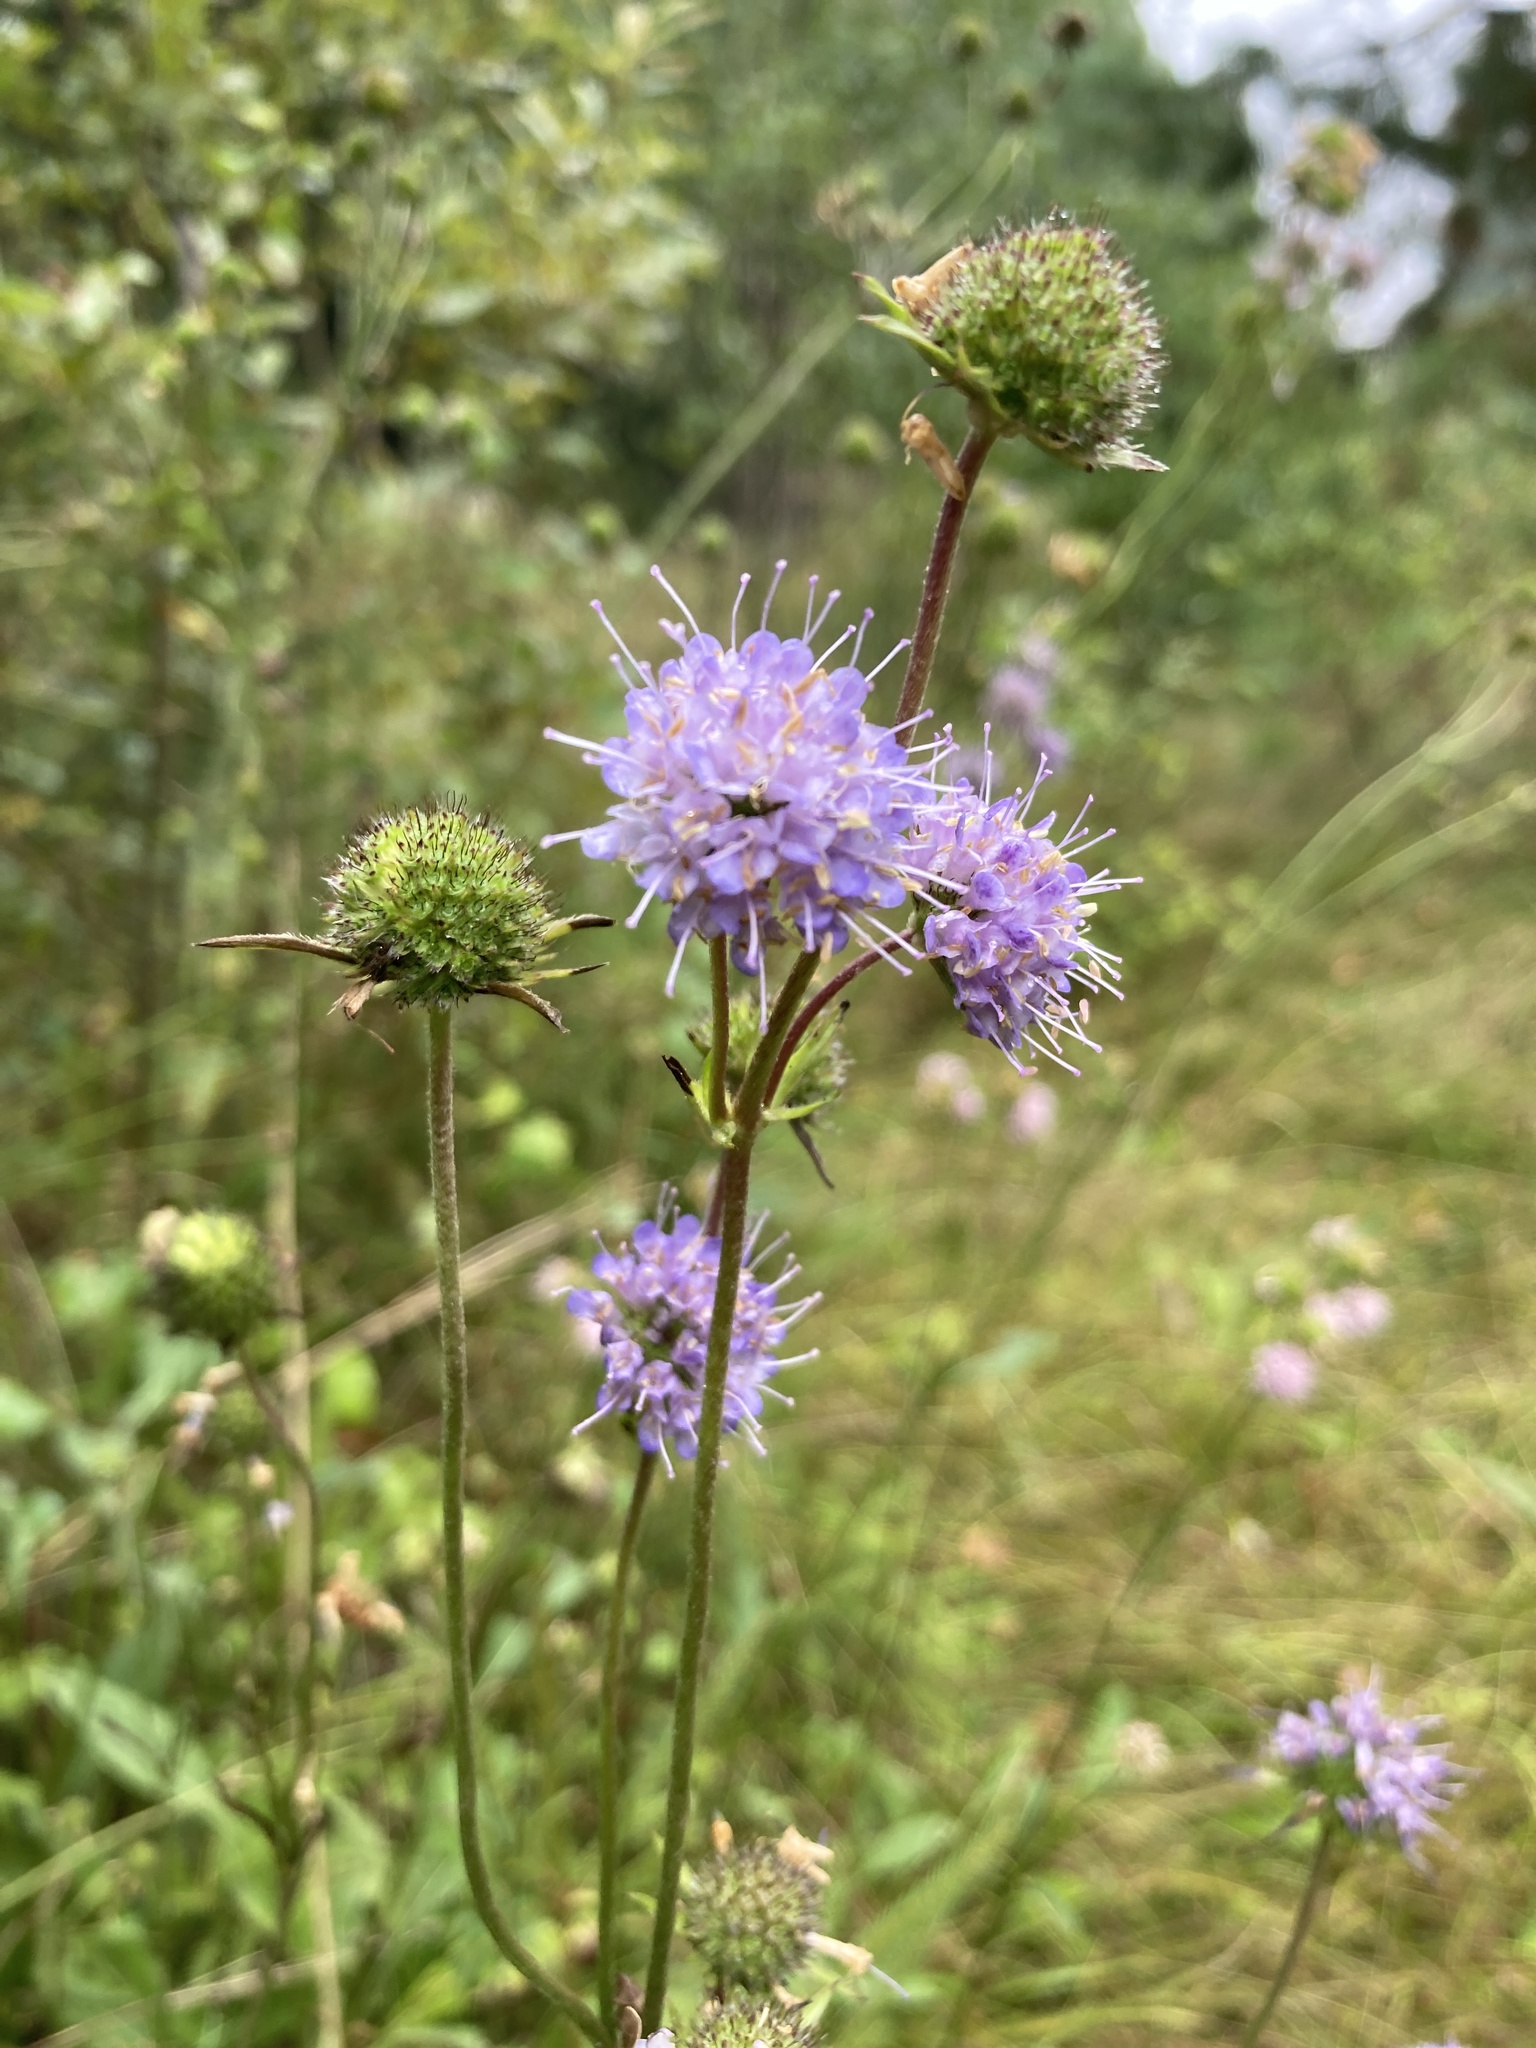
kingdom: Plantae
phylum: Tracheophyta
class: Magnoliopsida
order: Dipsacales
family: Caprifoliaceae
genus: Succisa
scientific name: Succisa pratensis
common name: Devil's-bit
